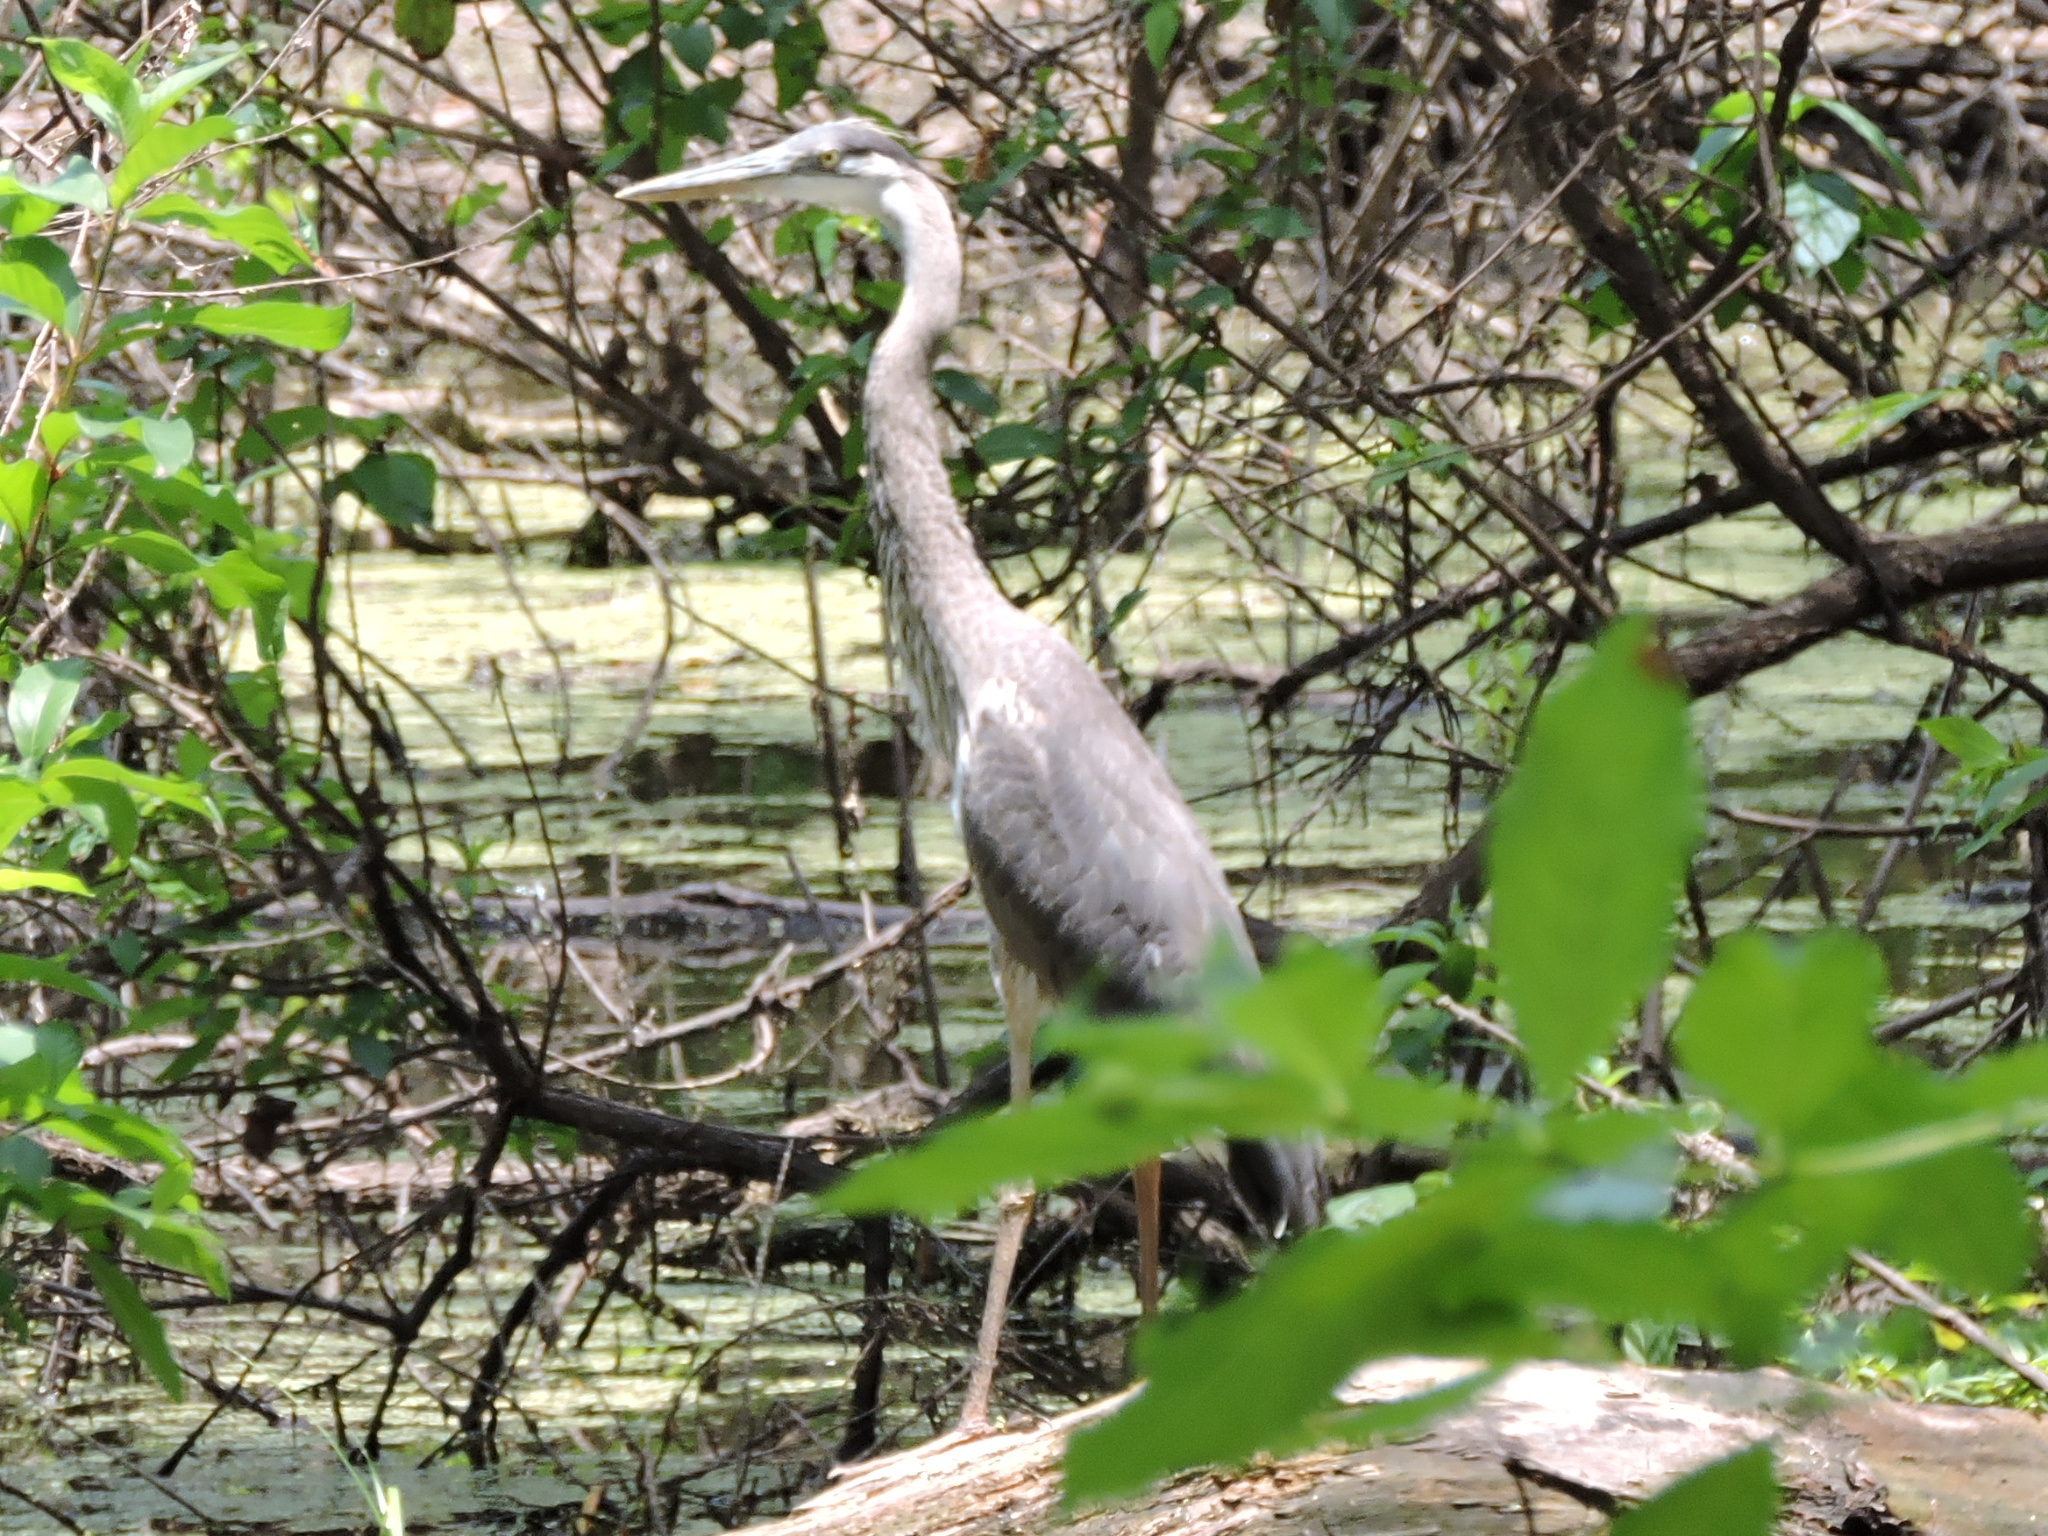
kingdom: Animalia
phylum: Chordata
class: Aves
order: Pelecaniformes
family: Ardeidae
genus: Ardea
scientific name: Ardea herodias
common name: Great blue heron
